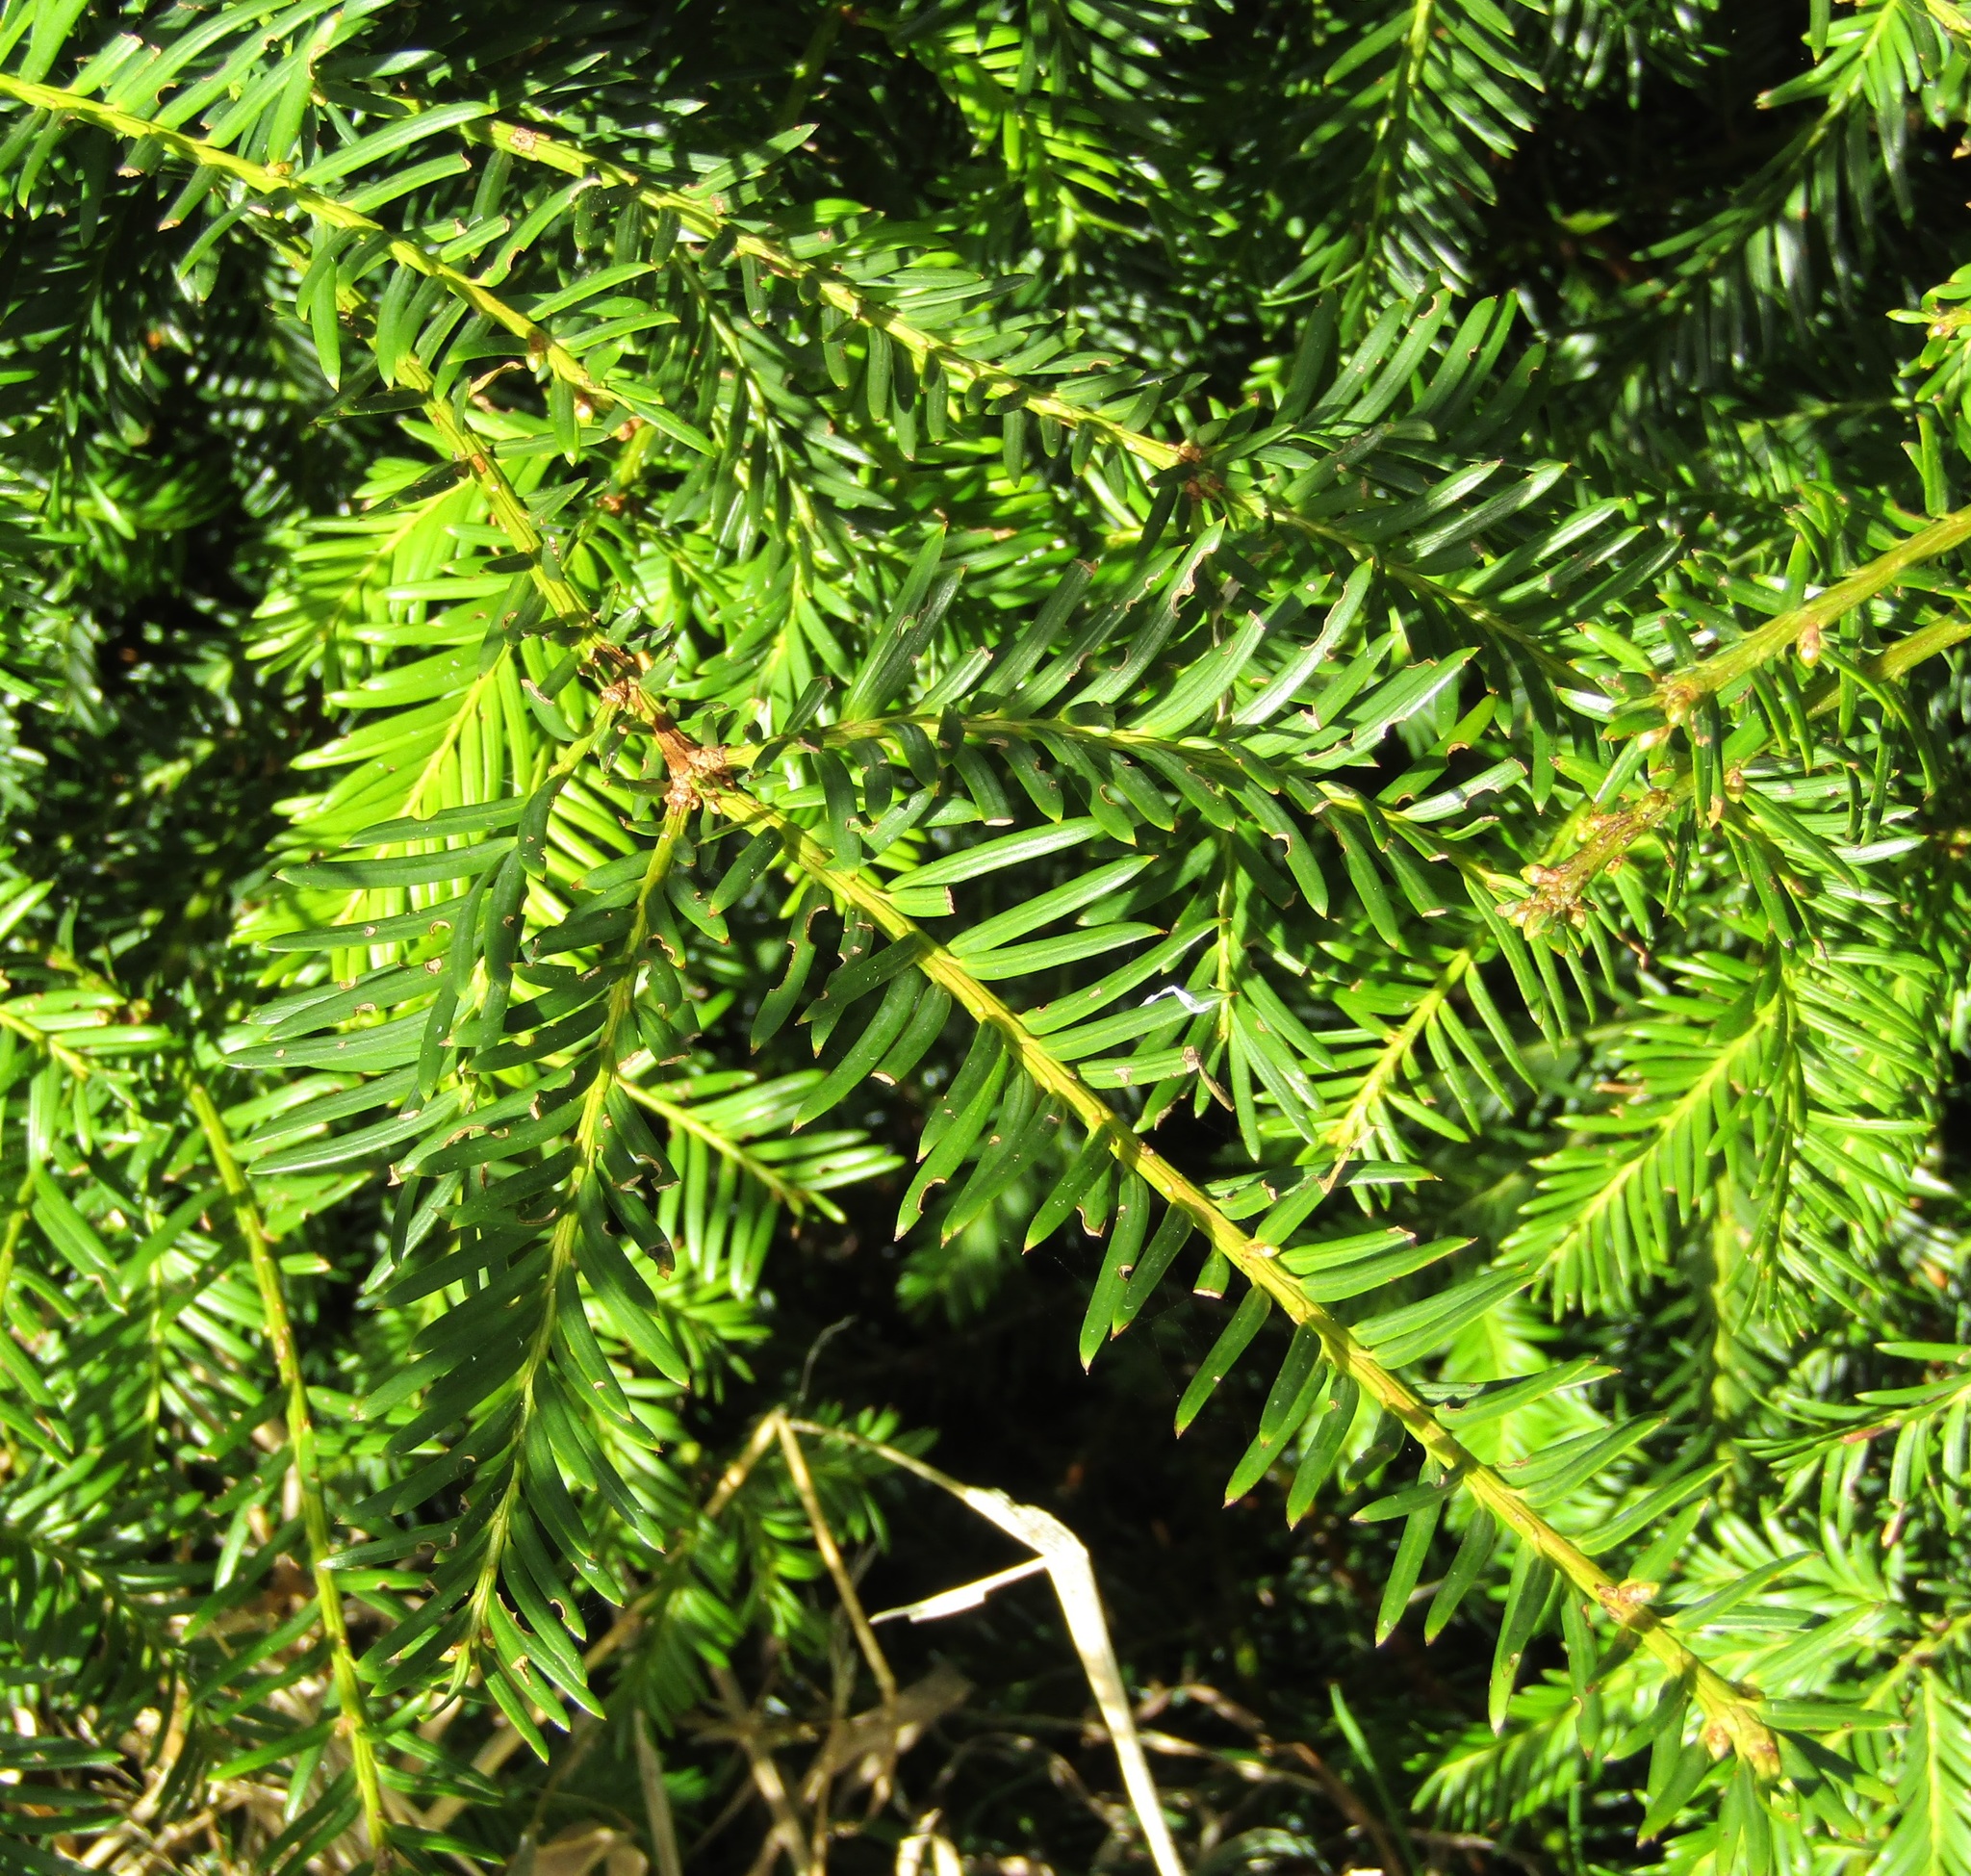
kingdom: Plantae
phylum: Tracheophyta
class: Pinopsida
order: Pinales
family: Taxaceae
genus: Taxus
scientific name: Taxus baccata
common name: Yew
